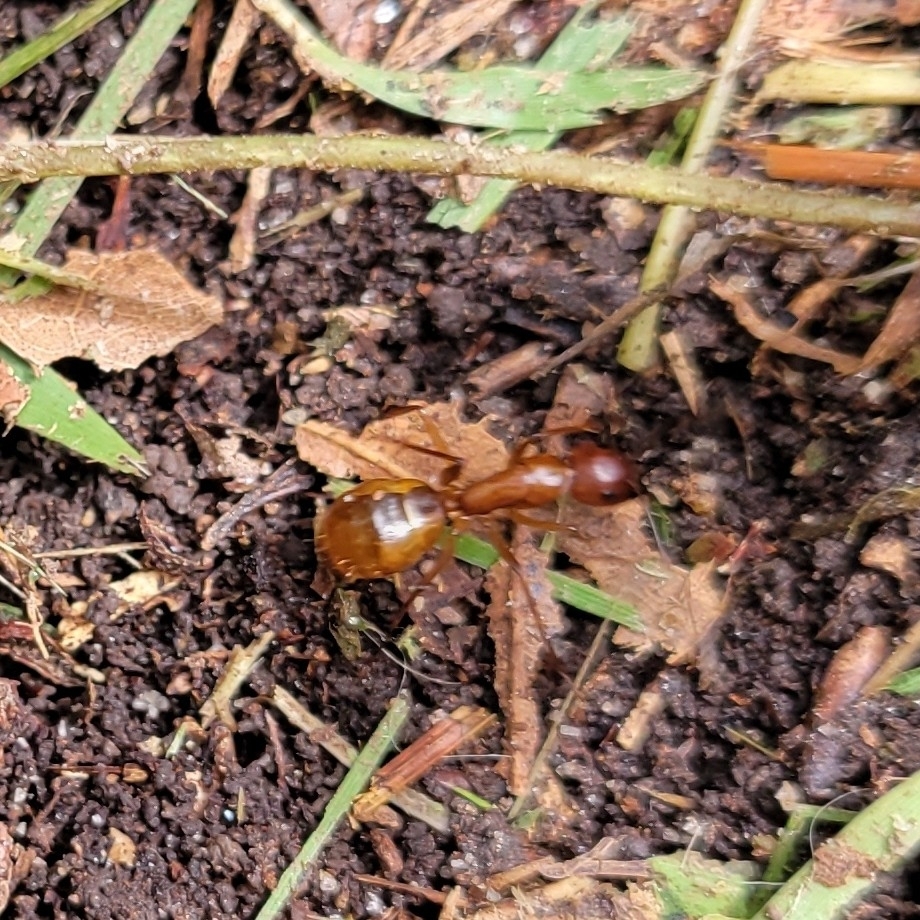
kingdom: Animalia
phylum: Arthropoda
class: Insecta
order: Hymenoptera
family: Formicidae
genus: Camponotus
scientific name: Camponotus castaneus
